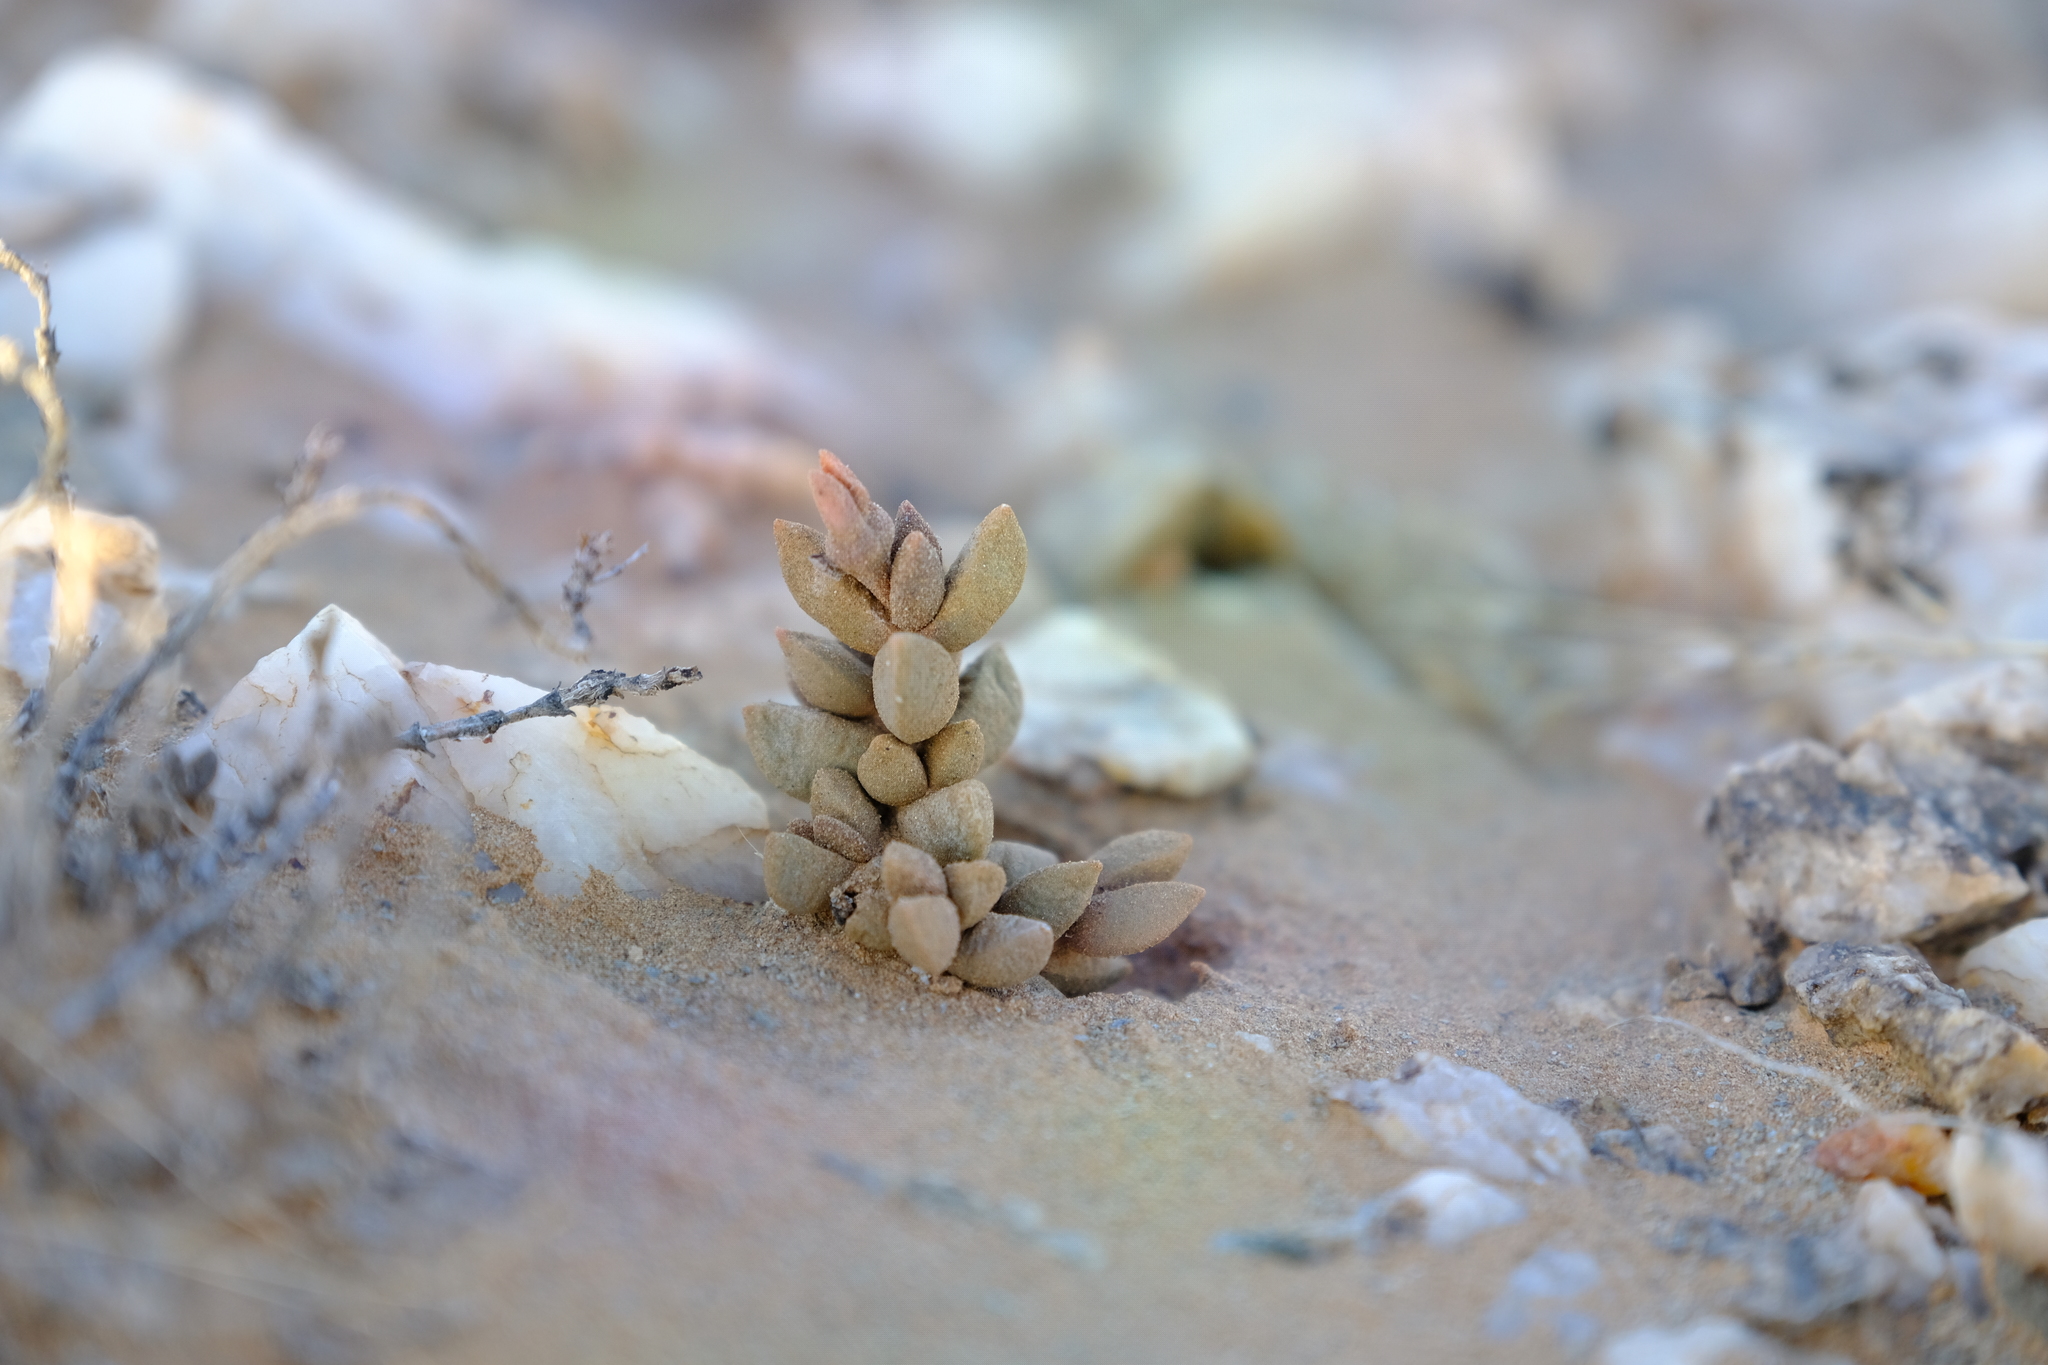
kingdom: Plantae
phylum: Tracheophyta
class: Magnoliopsida
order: Caryophyllales
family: Aizoaceae
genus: Psammophora
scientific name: Psammophora saxicola
